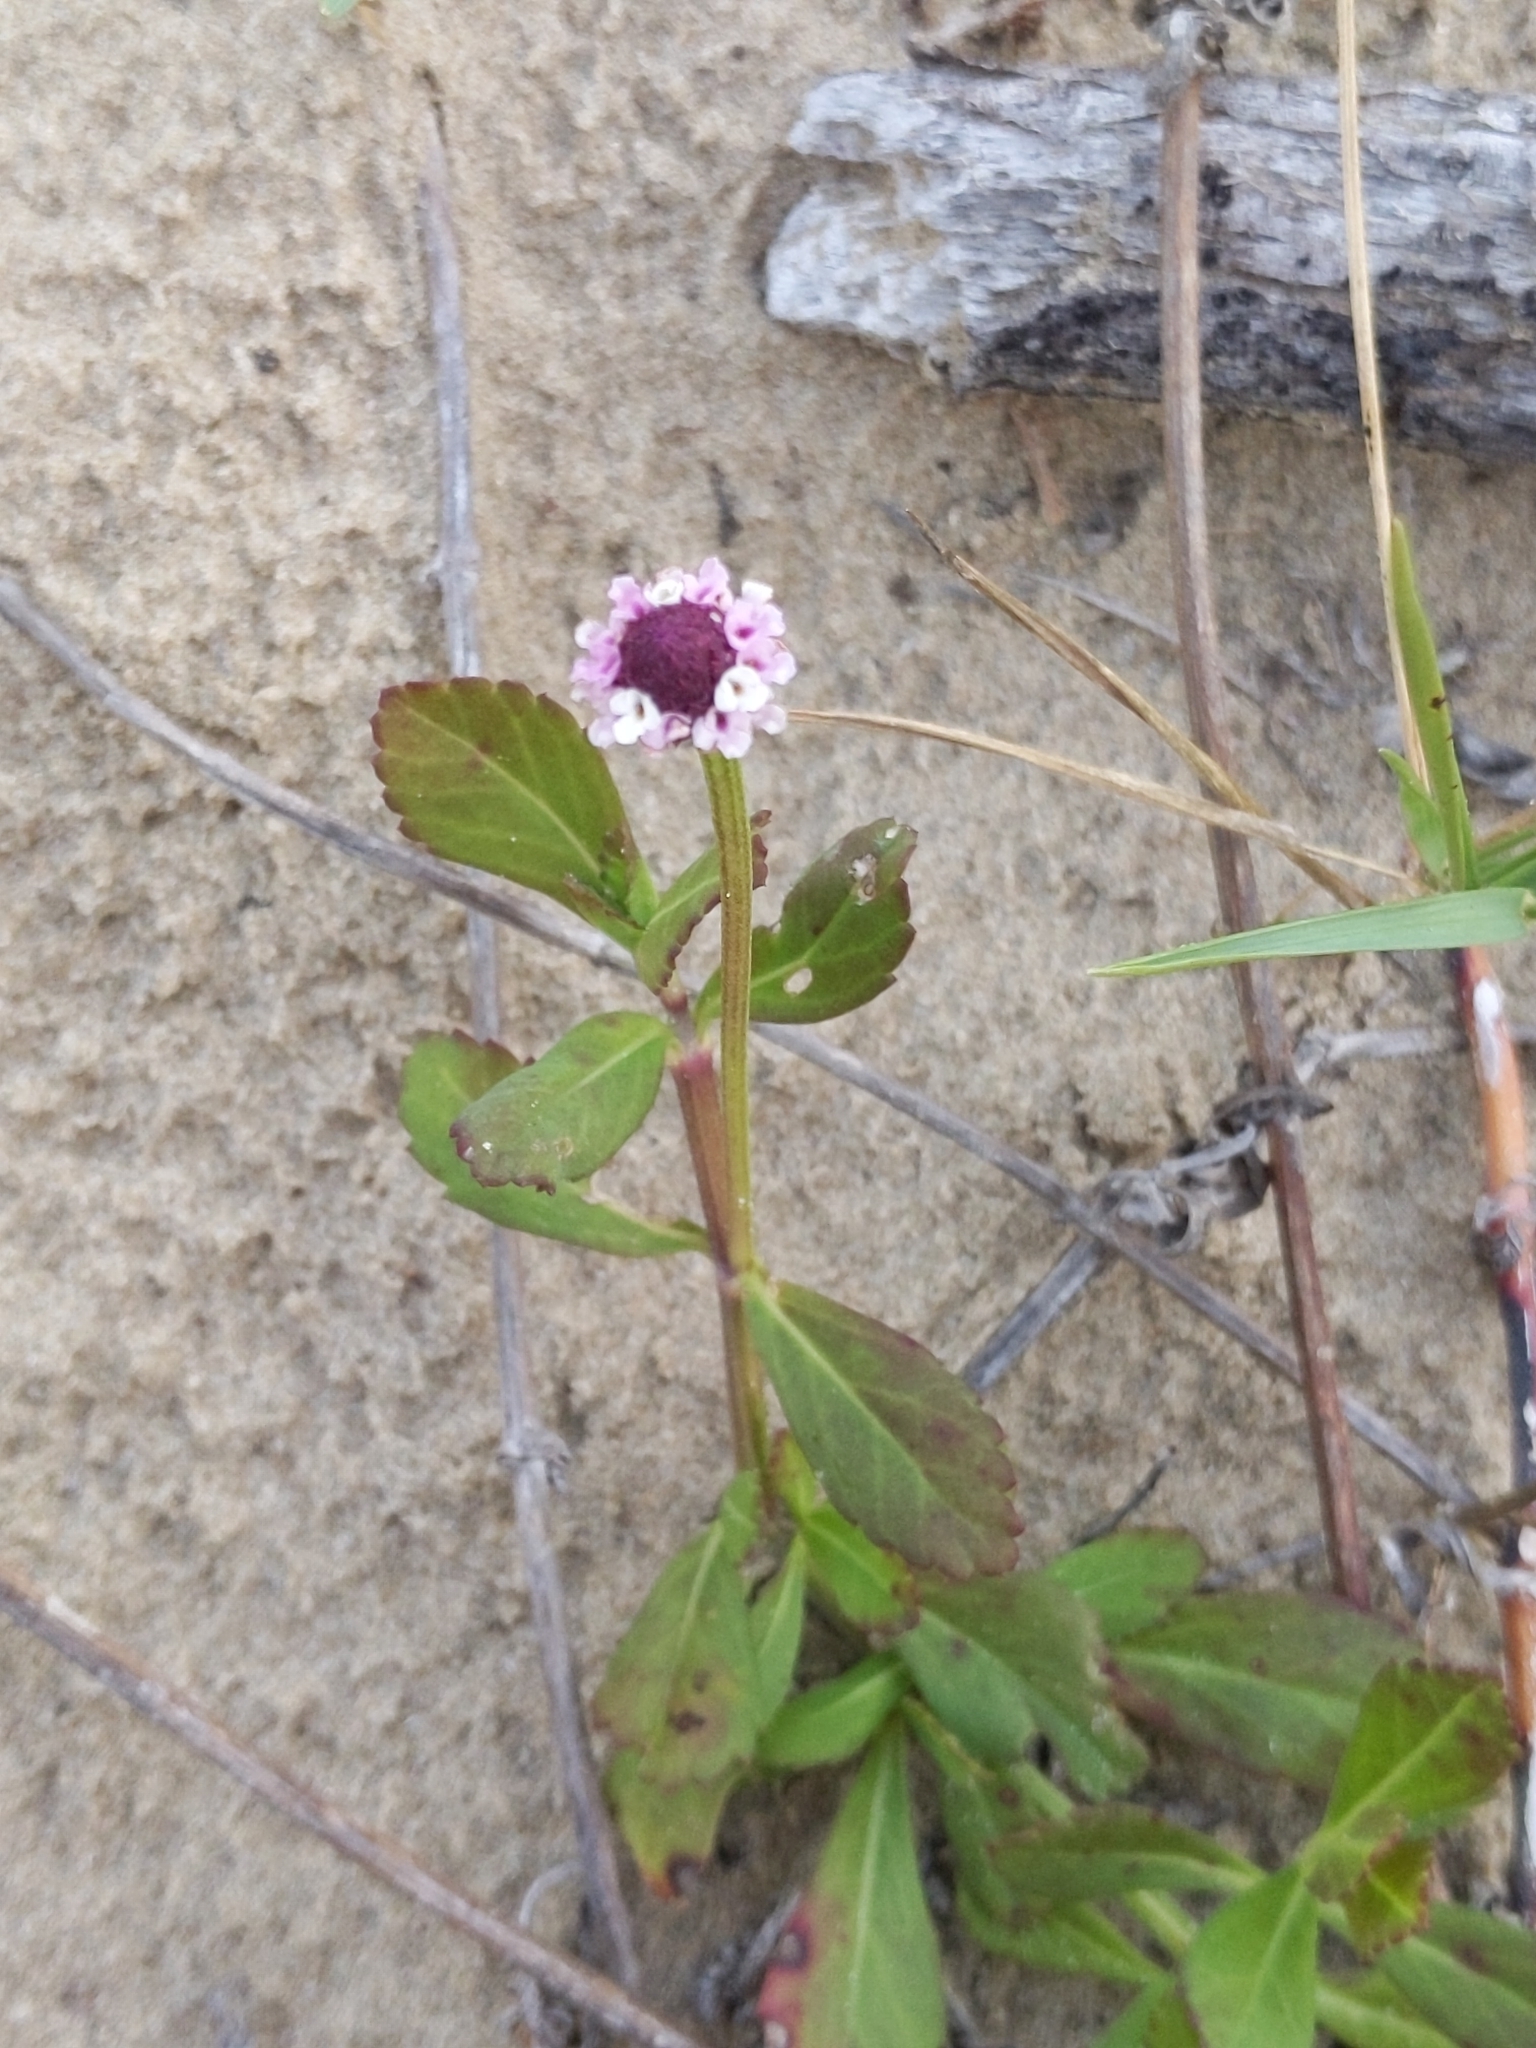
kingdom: Plantae
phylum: Tracheophyta
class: Magnoliopsida
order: Lamiales
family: Verbenaceae
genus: Phyla
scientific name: Phyla nodiflora
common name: Frogfruit
